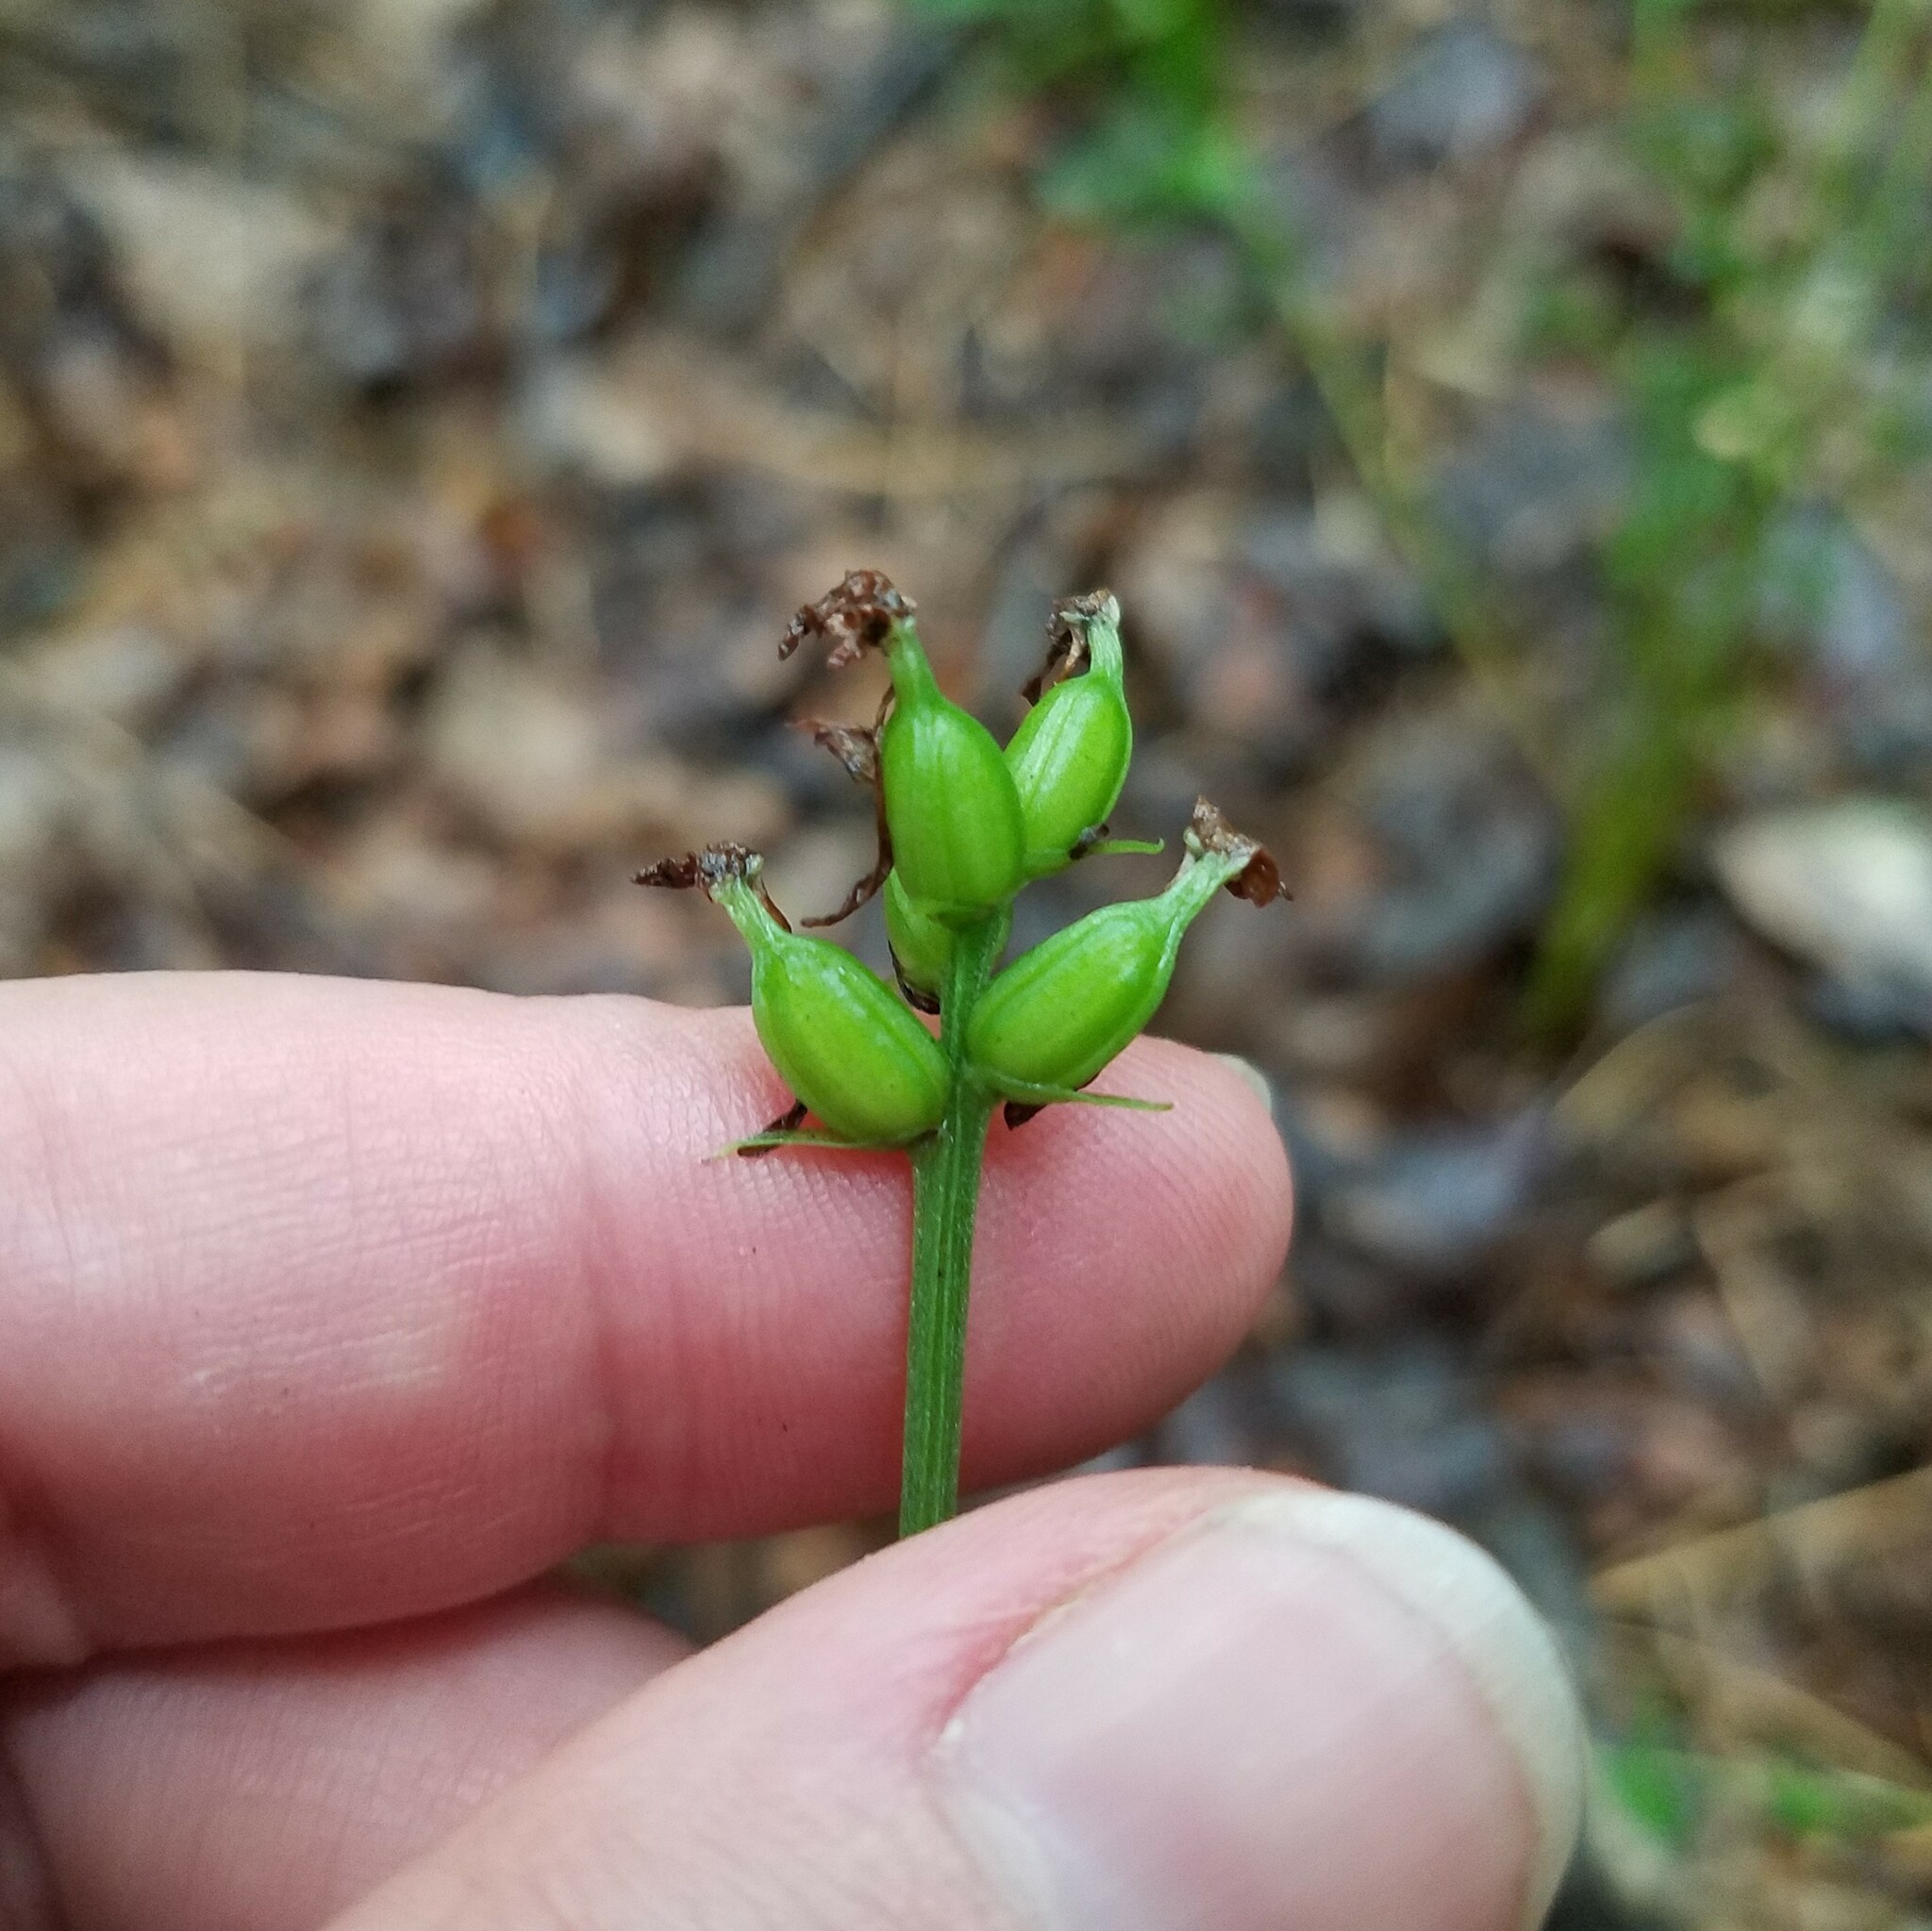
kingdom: Plantae
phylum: Tracheophyta
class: Liliopsida
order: Asparagales
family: Orchidaceae
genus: Platanthera
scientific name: Platanthera clavellata
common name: Club-spur orchid
